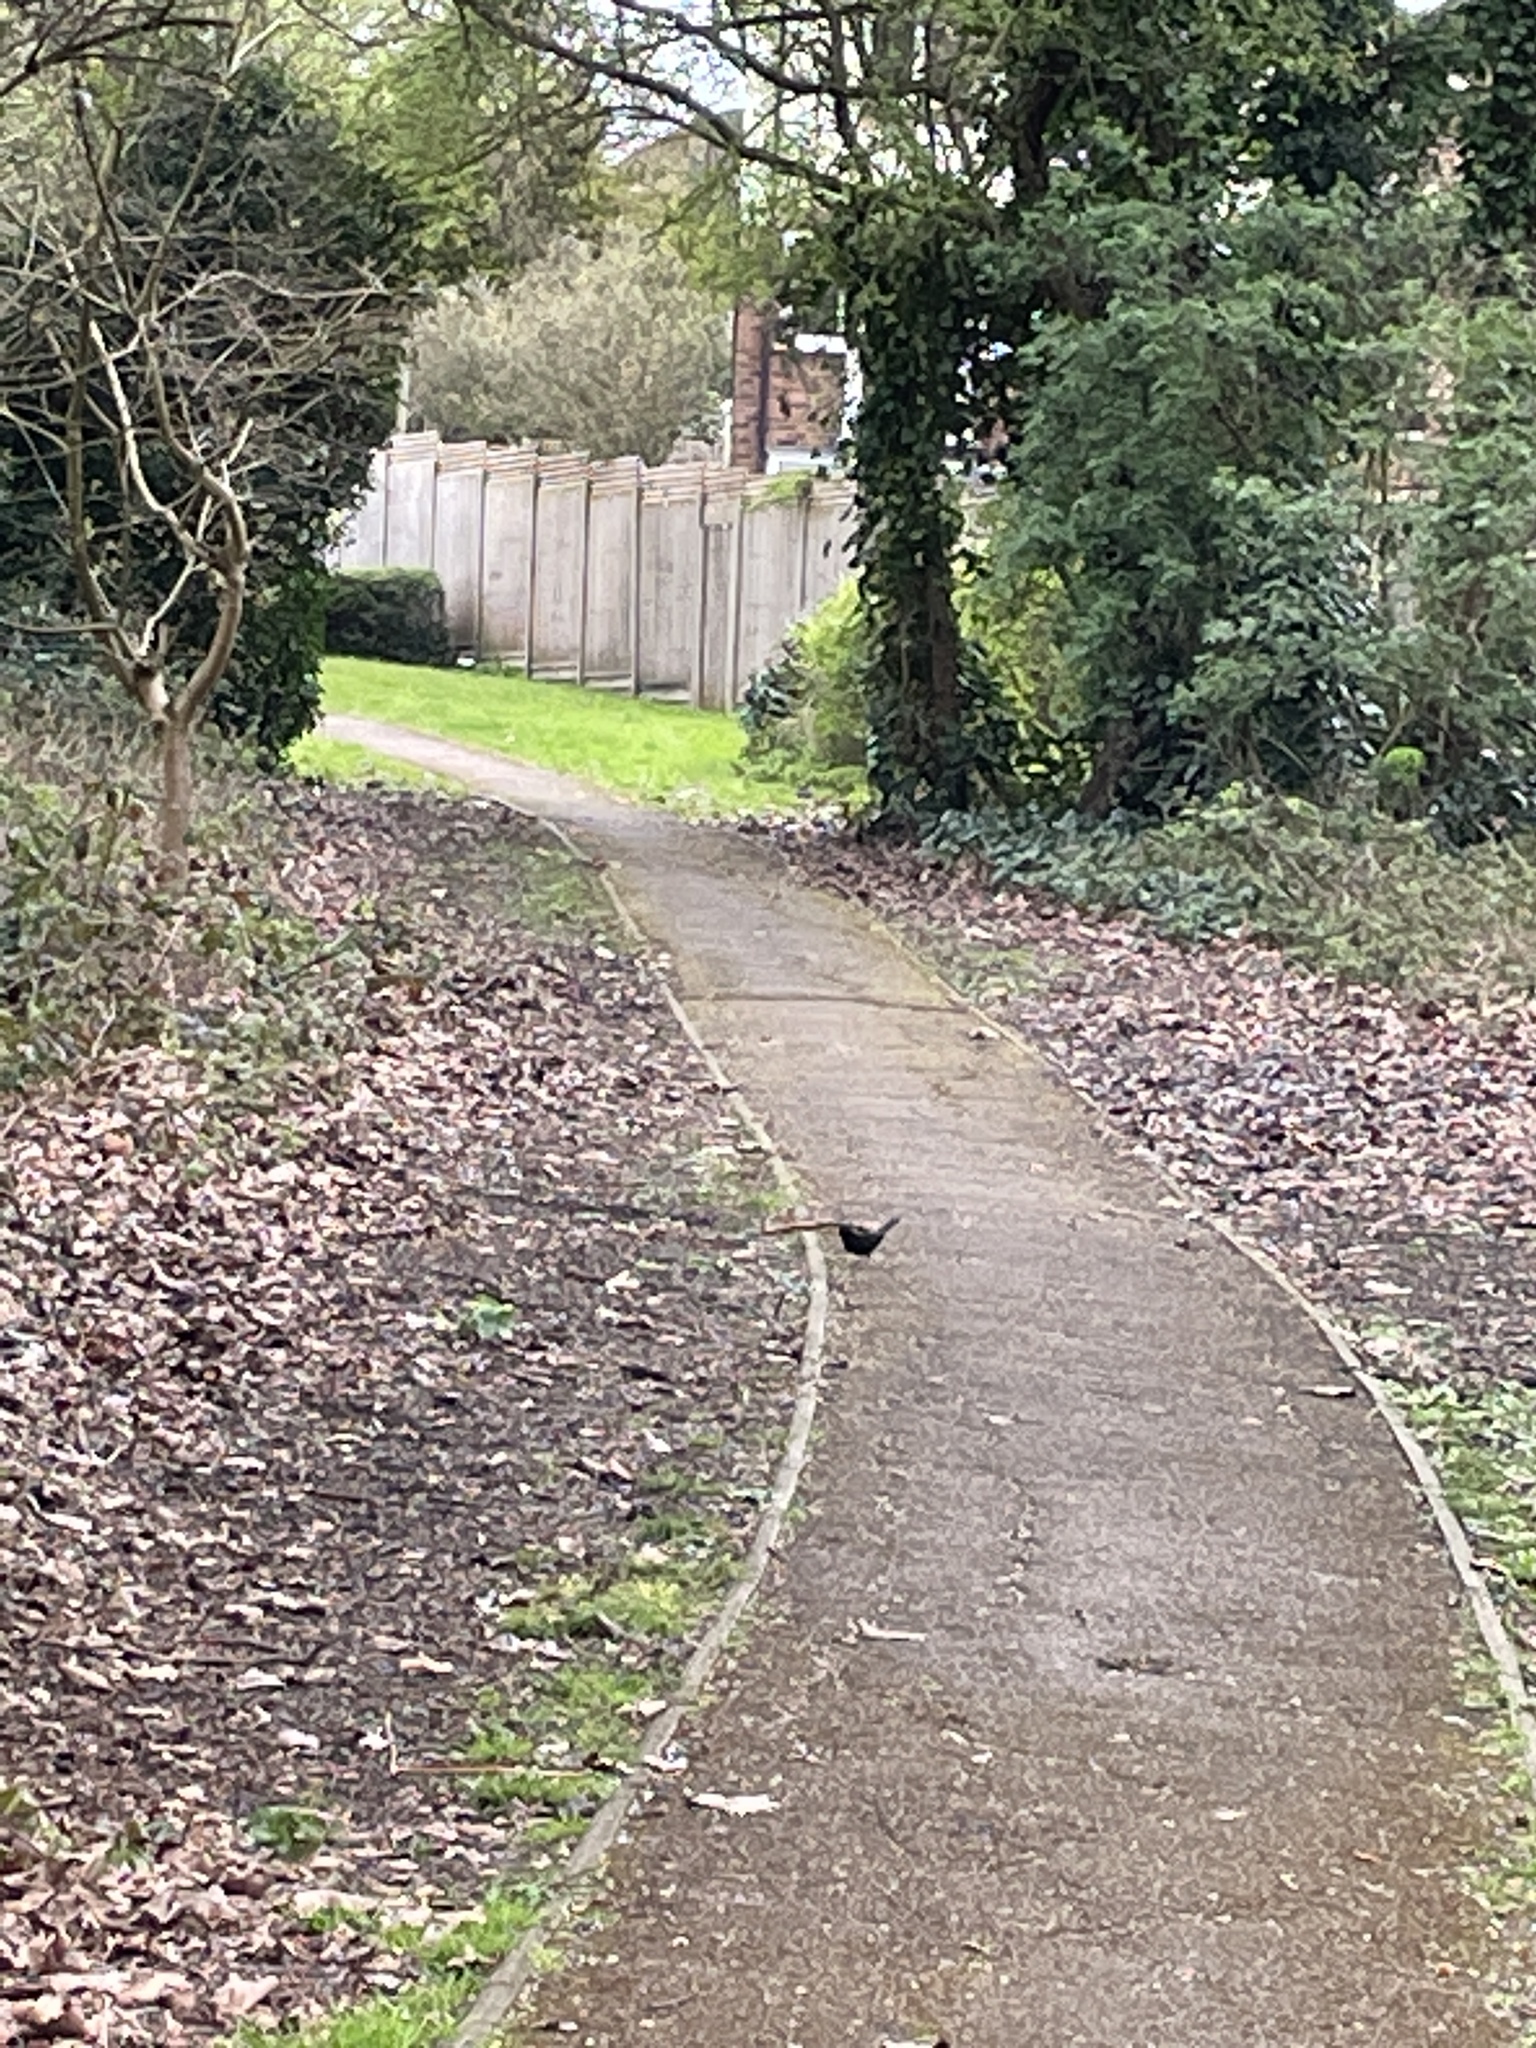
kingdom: Animalia
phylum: Chordata
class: Aves
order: Passeriformes
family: Turdidae
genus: Turdus
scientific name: Turdus merula
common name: Common blackbird
